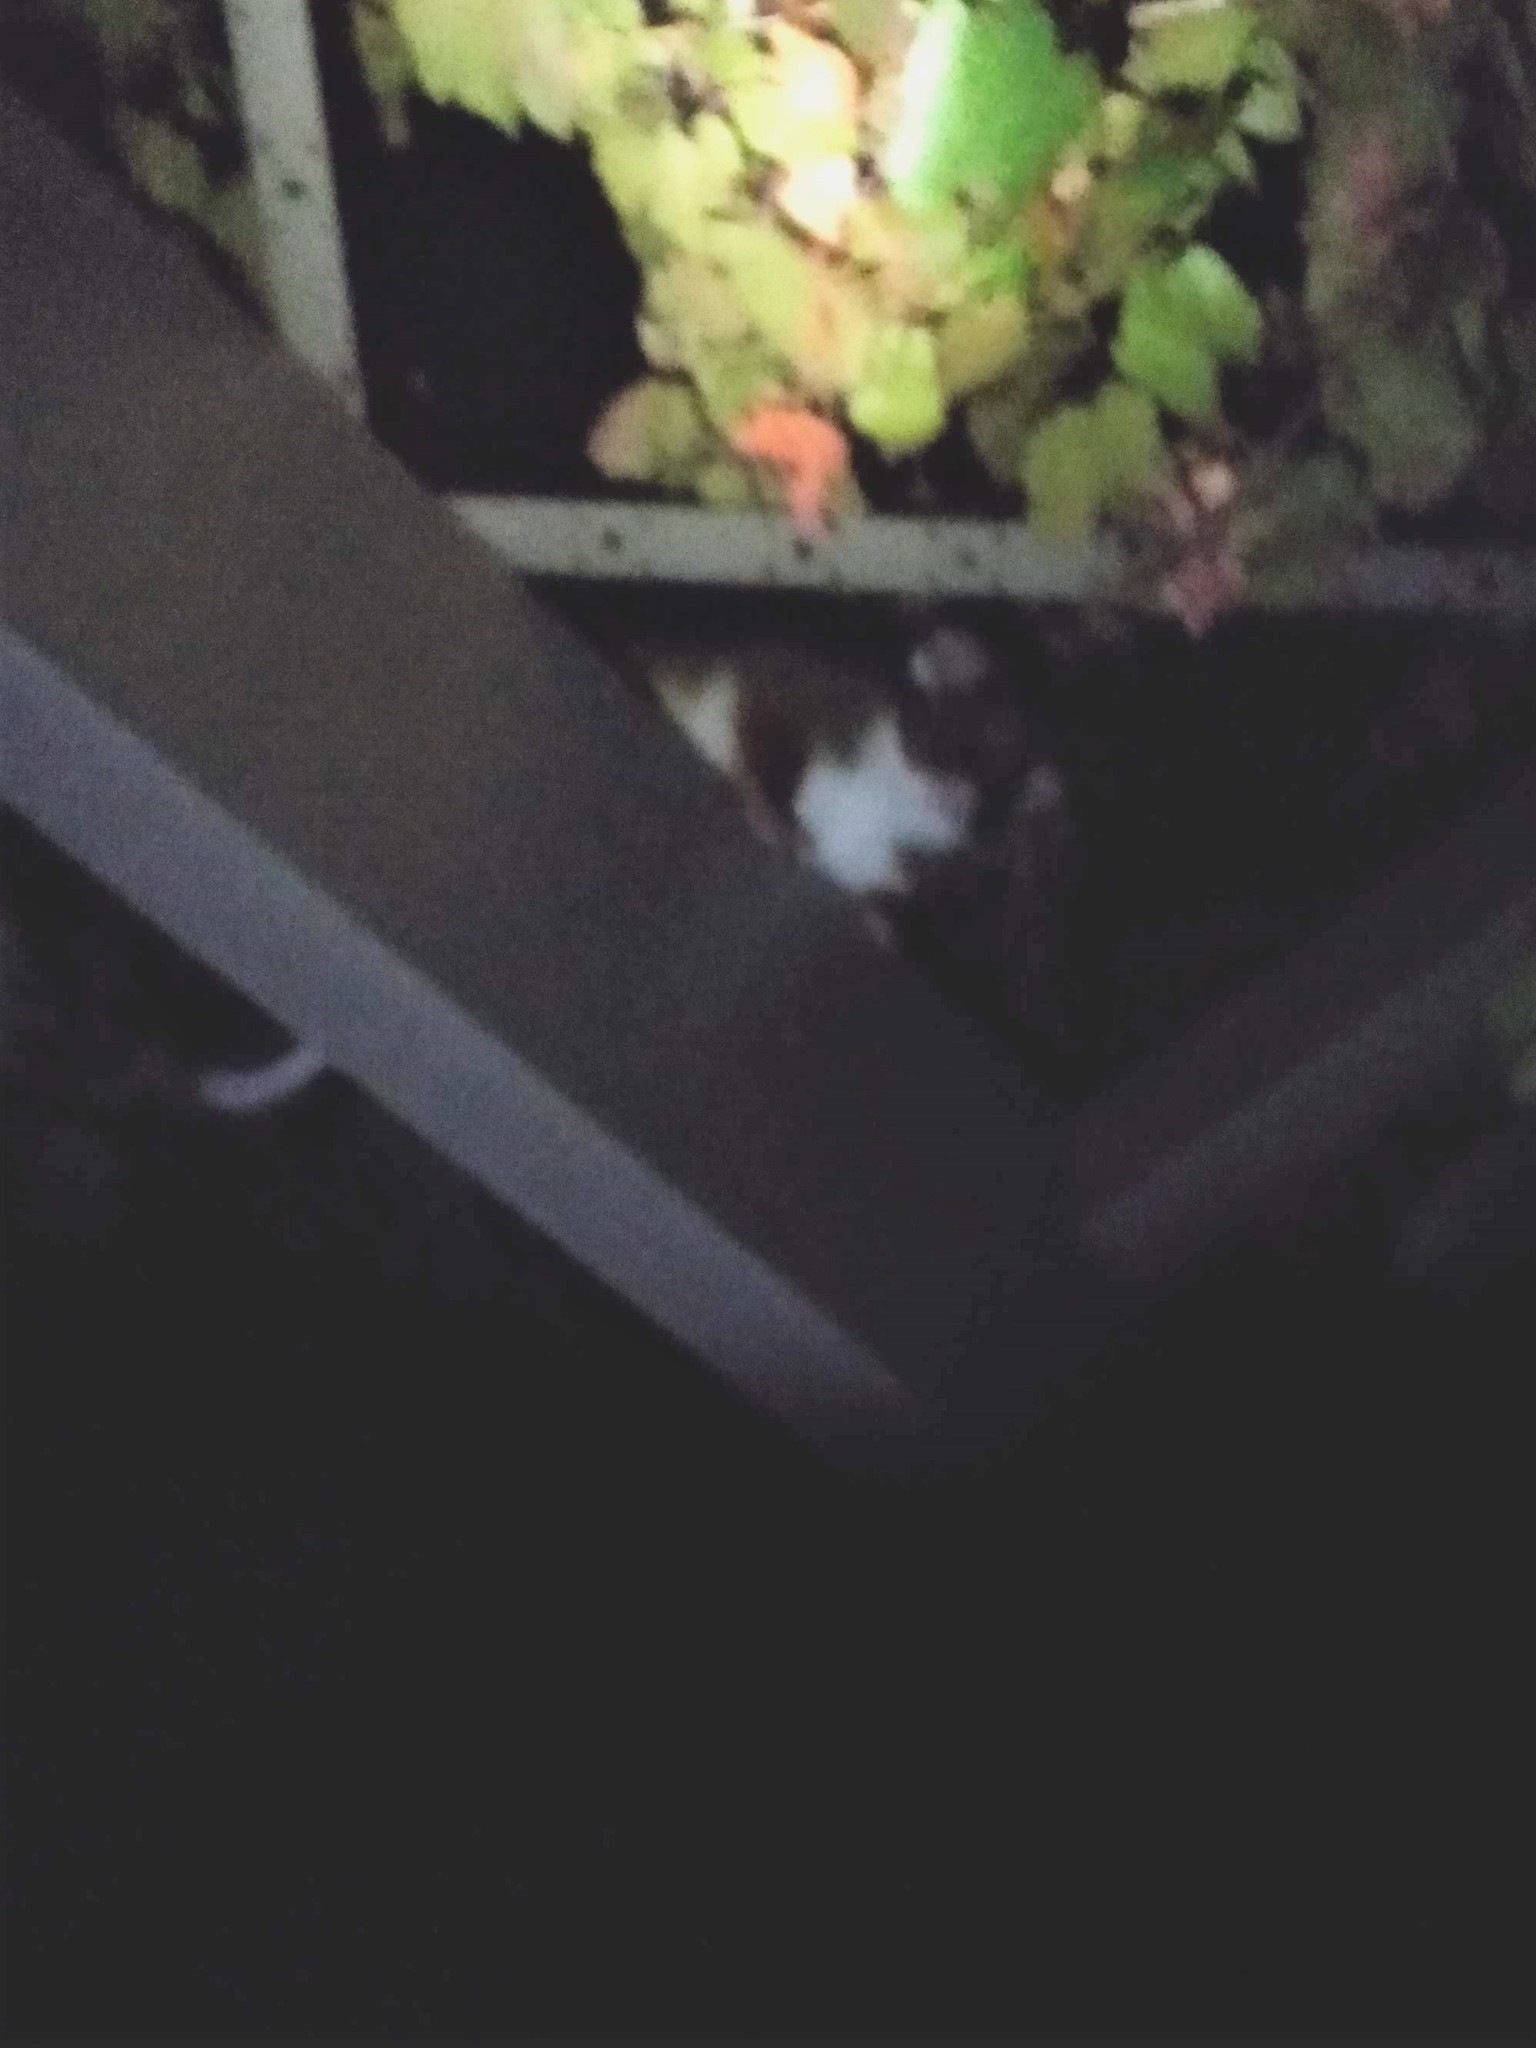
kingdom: Animalia
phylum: Chordata
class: Mammalia
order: Diprotodontia
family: Pseudocheiridae
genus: Pseudocheirus
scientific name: Pseudocheirus peregrinus
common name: Common ringtail possum
